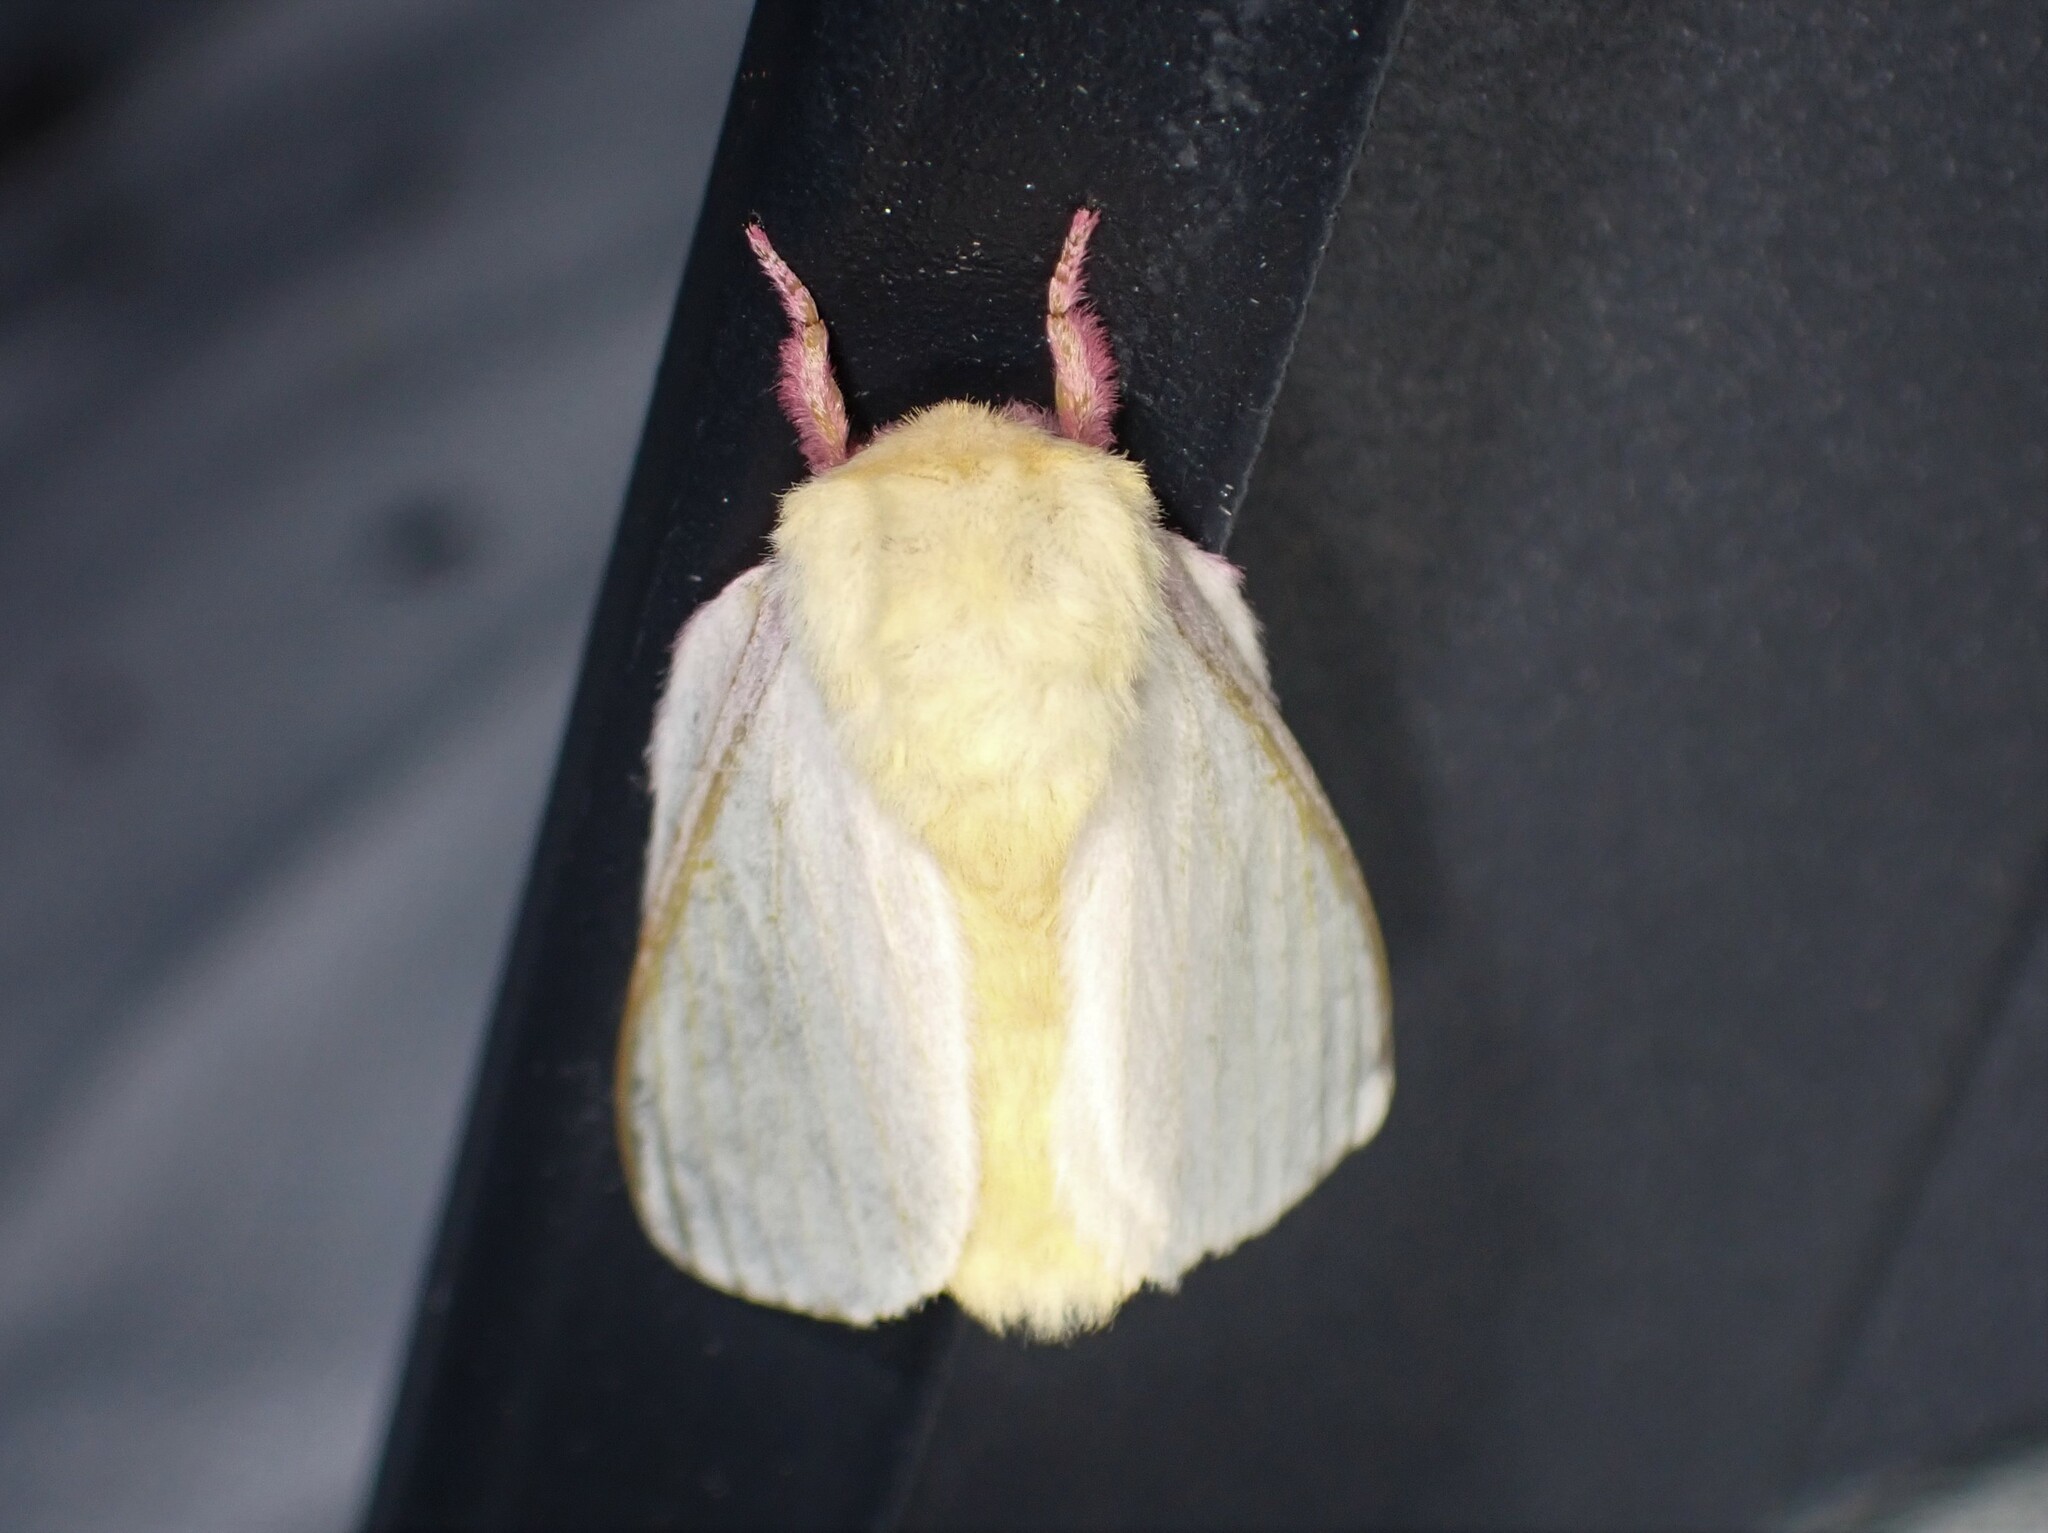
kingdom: Animalia
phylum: Arthropoda
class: Insecta
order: Lepidoptera
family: Saturniidae
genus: Dryocampa
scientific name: Dryocampa rubicunda
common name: Rosy maple moth
